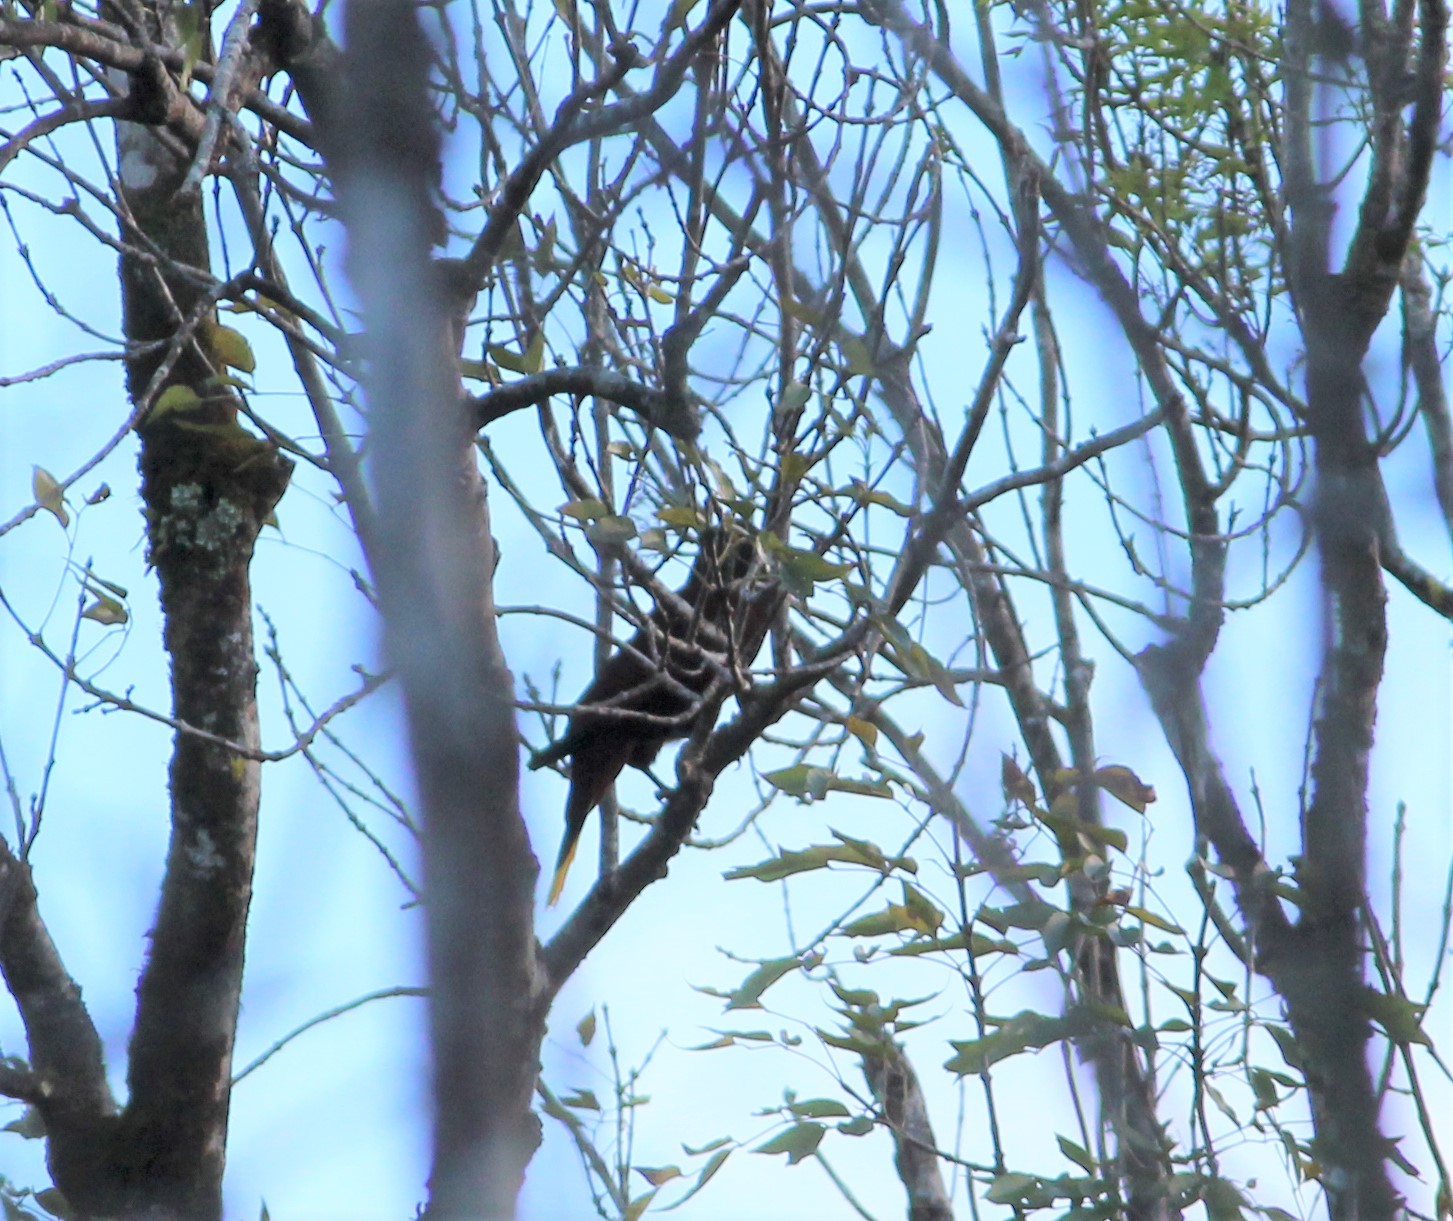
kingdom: Animalia
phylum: Chordata
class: Aves
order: Passeriformes
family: Icteridae
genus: Psarocolius
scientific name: Psarocolius montezuma
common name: Montezuma oropendola
